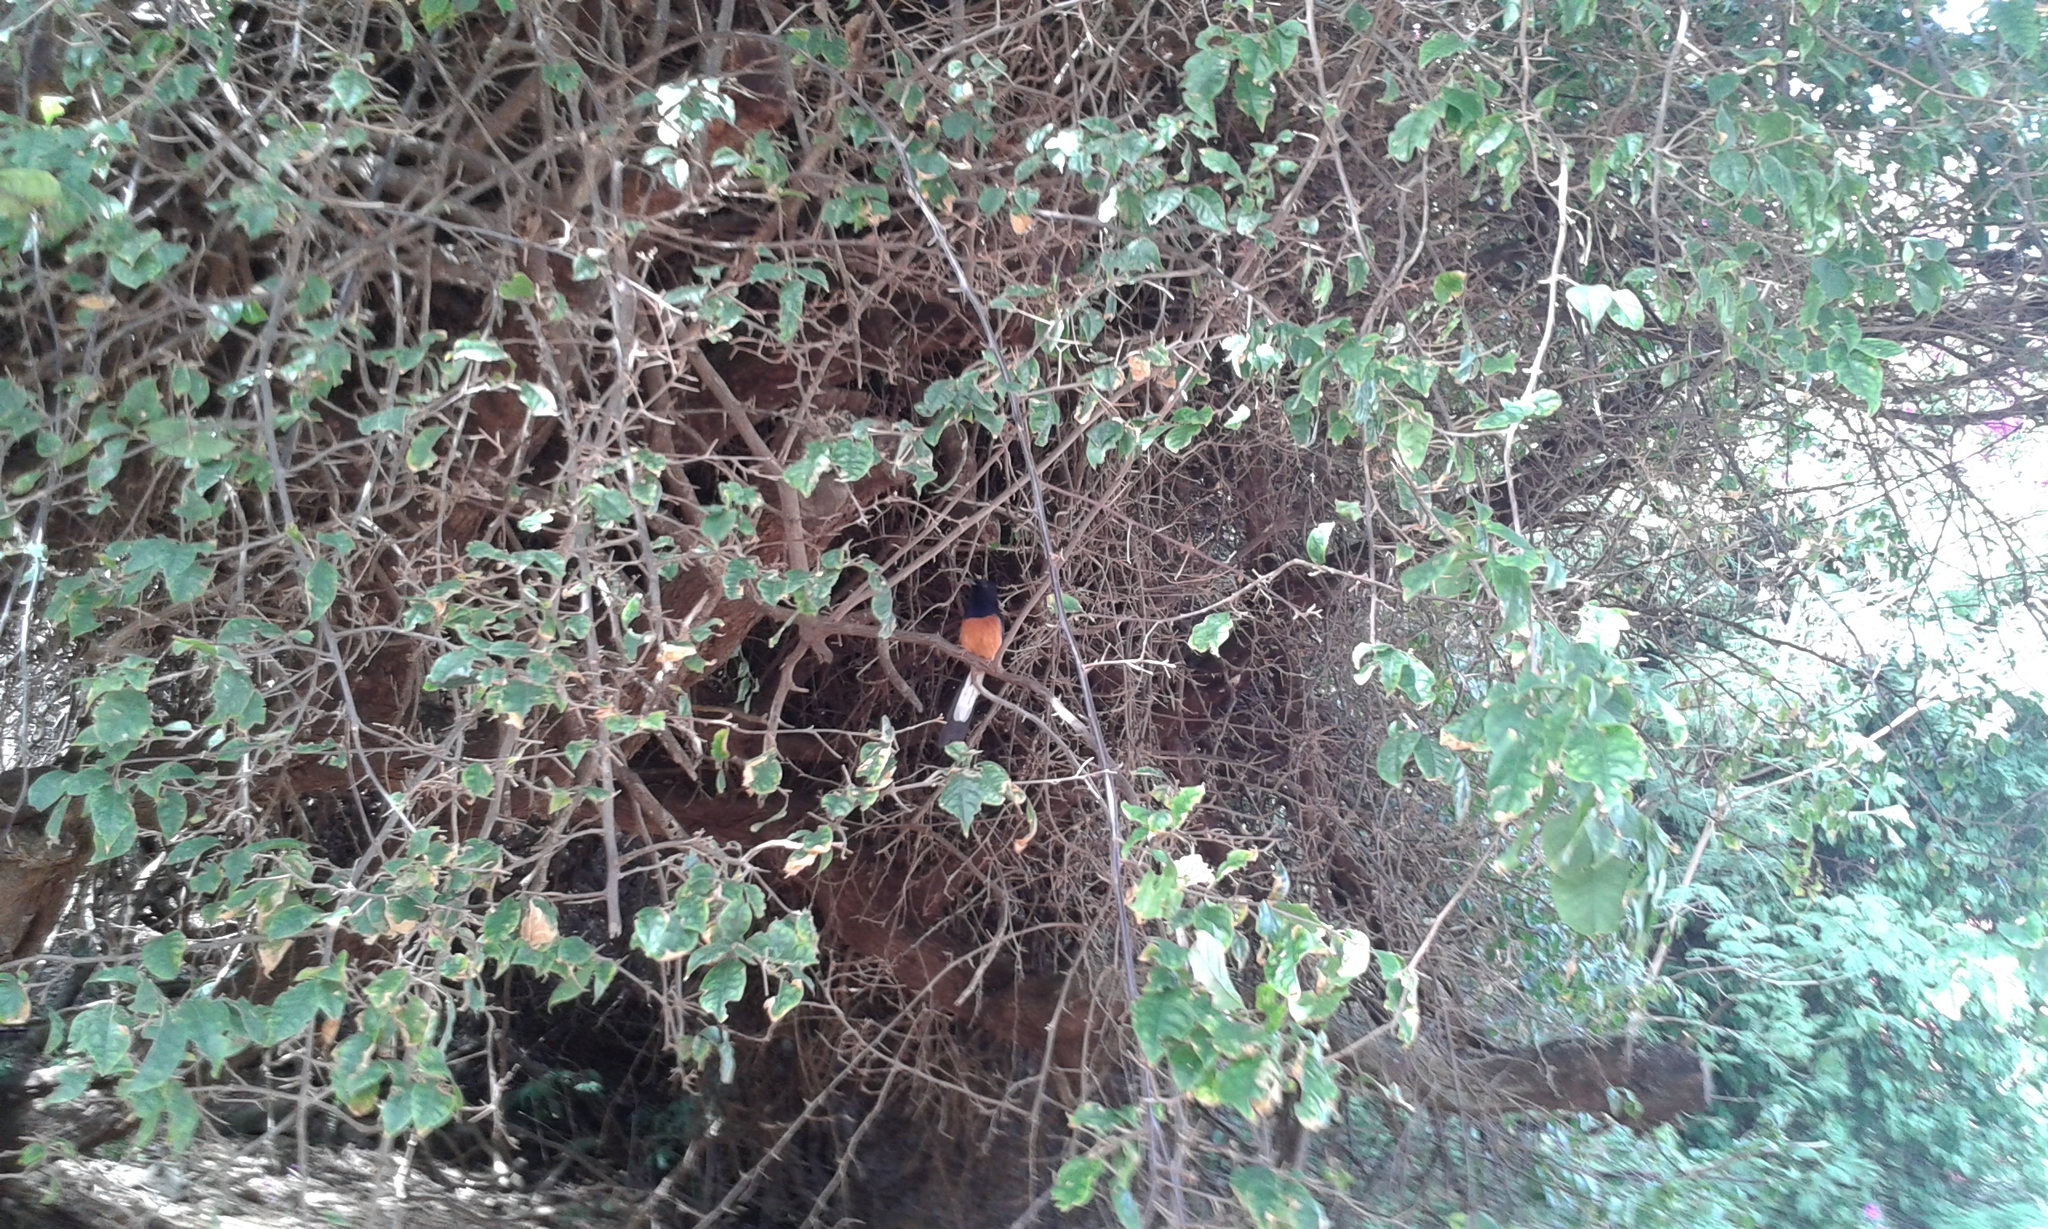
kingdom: Animalia
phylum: Chordata
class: Aves
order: Passeriformes
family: Muscicapidae
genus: Copsychus
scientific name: Copsychus malabaricus
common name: White-rumped shama
